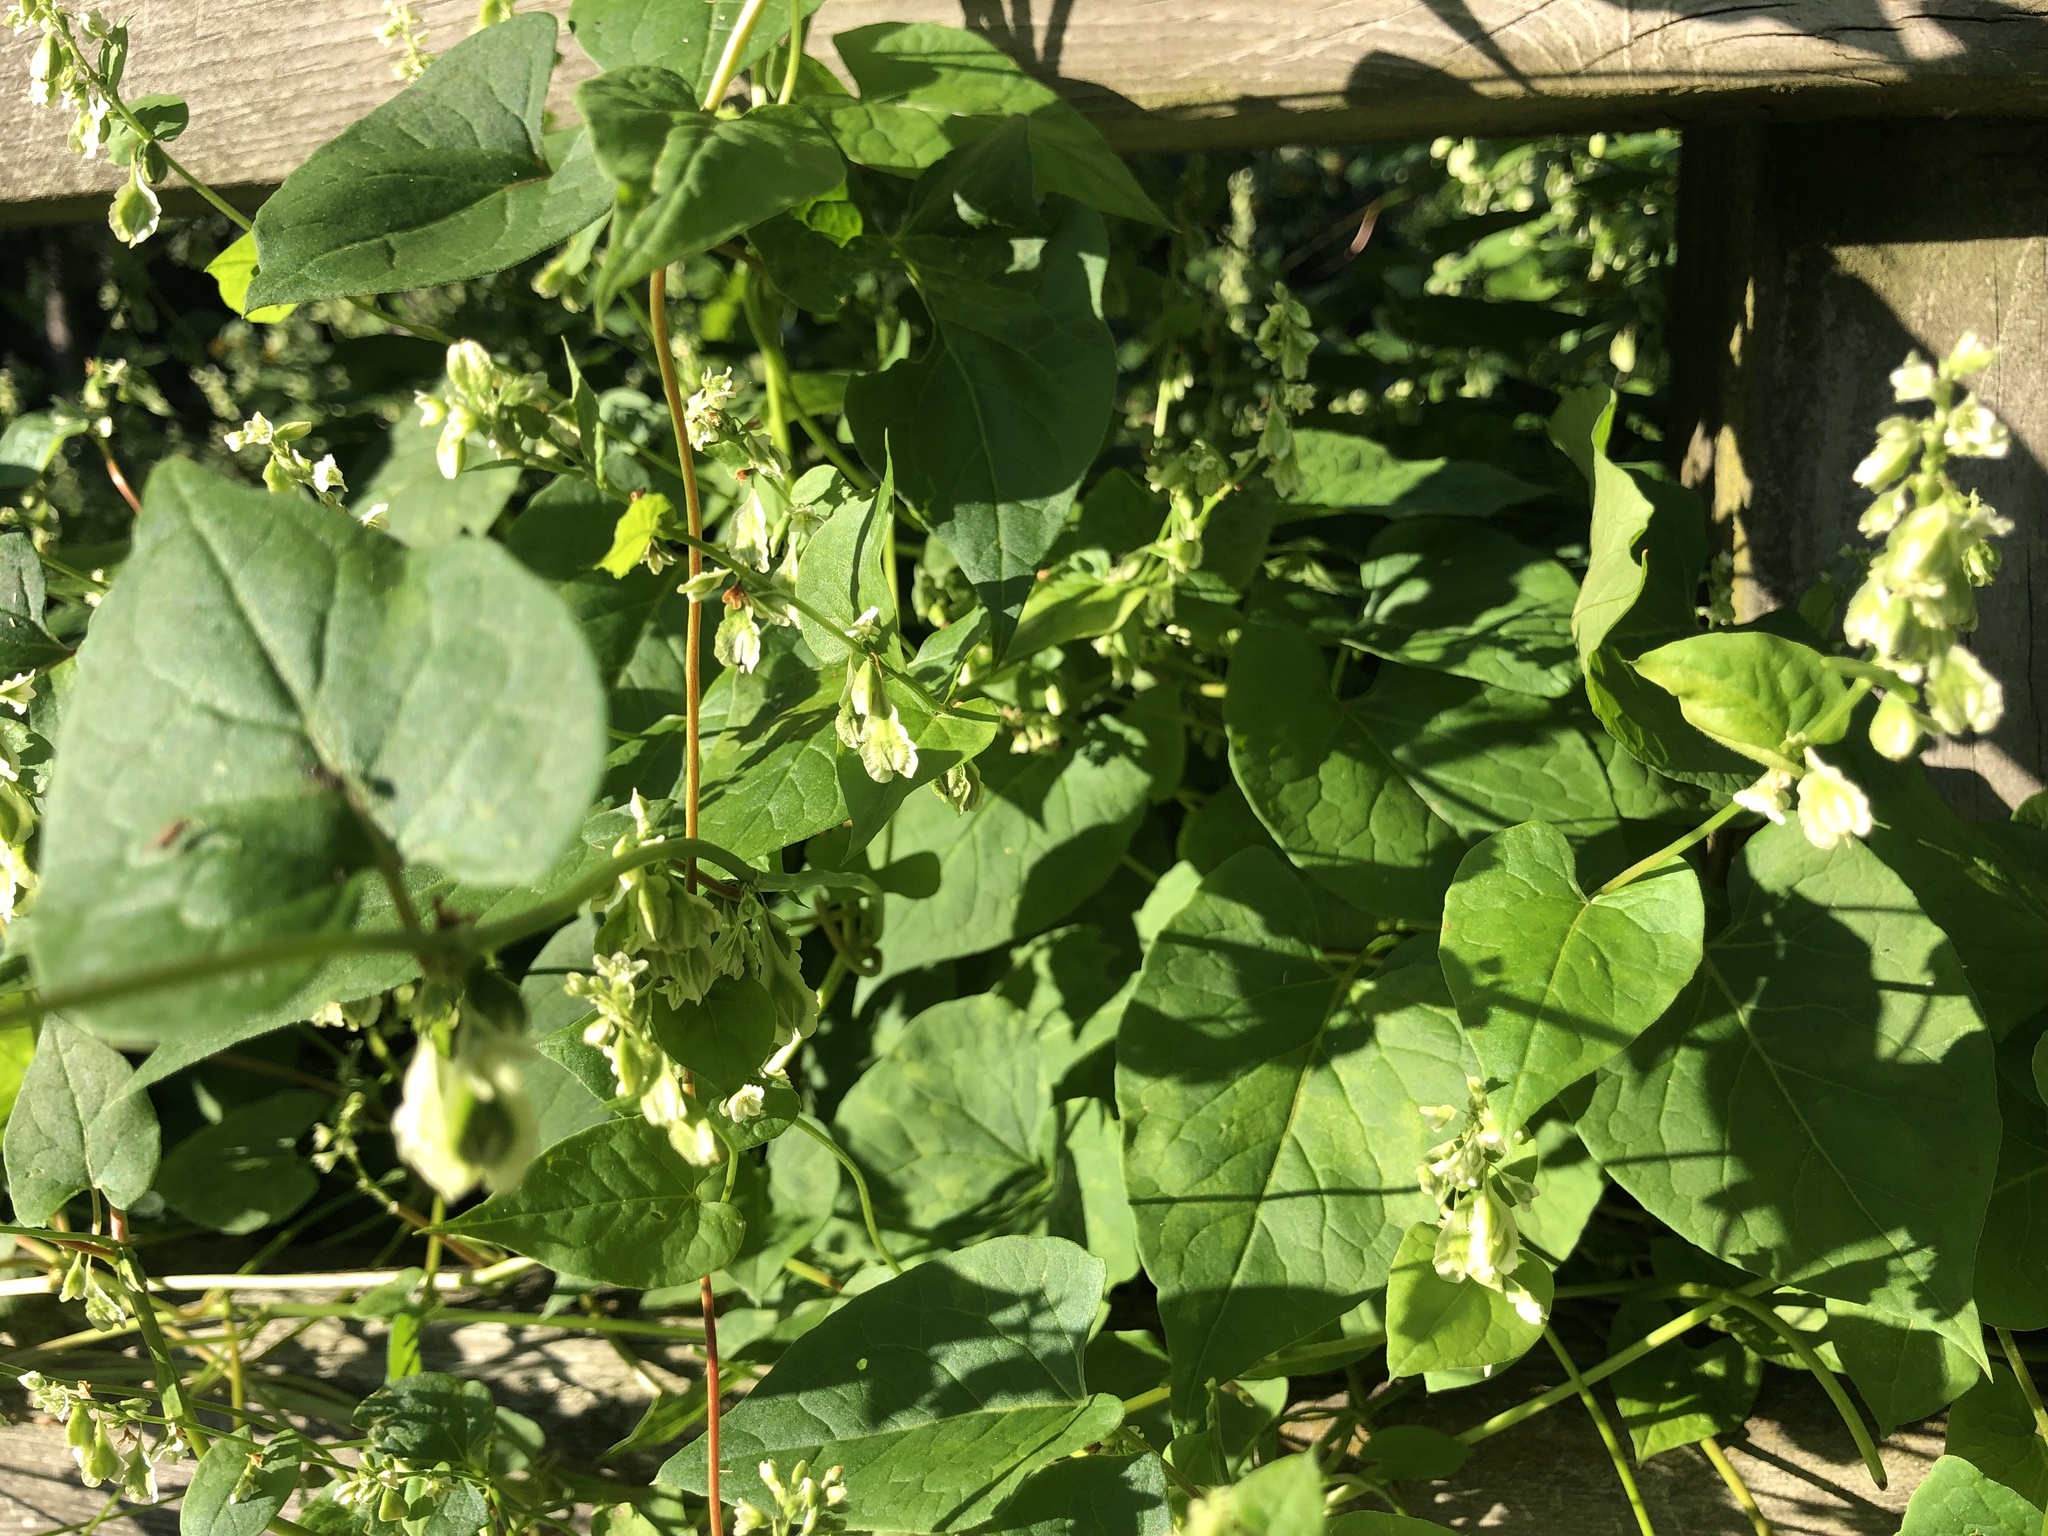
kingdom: Plantae
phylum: Tracheophyta
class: Magnoliopsida
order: Caryophyllales
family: Polygonaceae
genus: Fallopia
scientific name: Fallopia scandens
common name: Climbing false buckwheat
